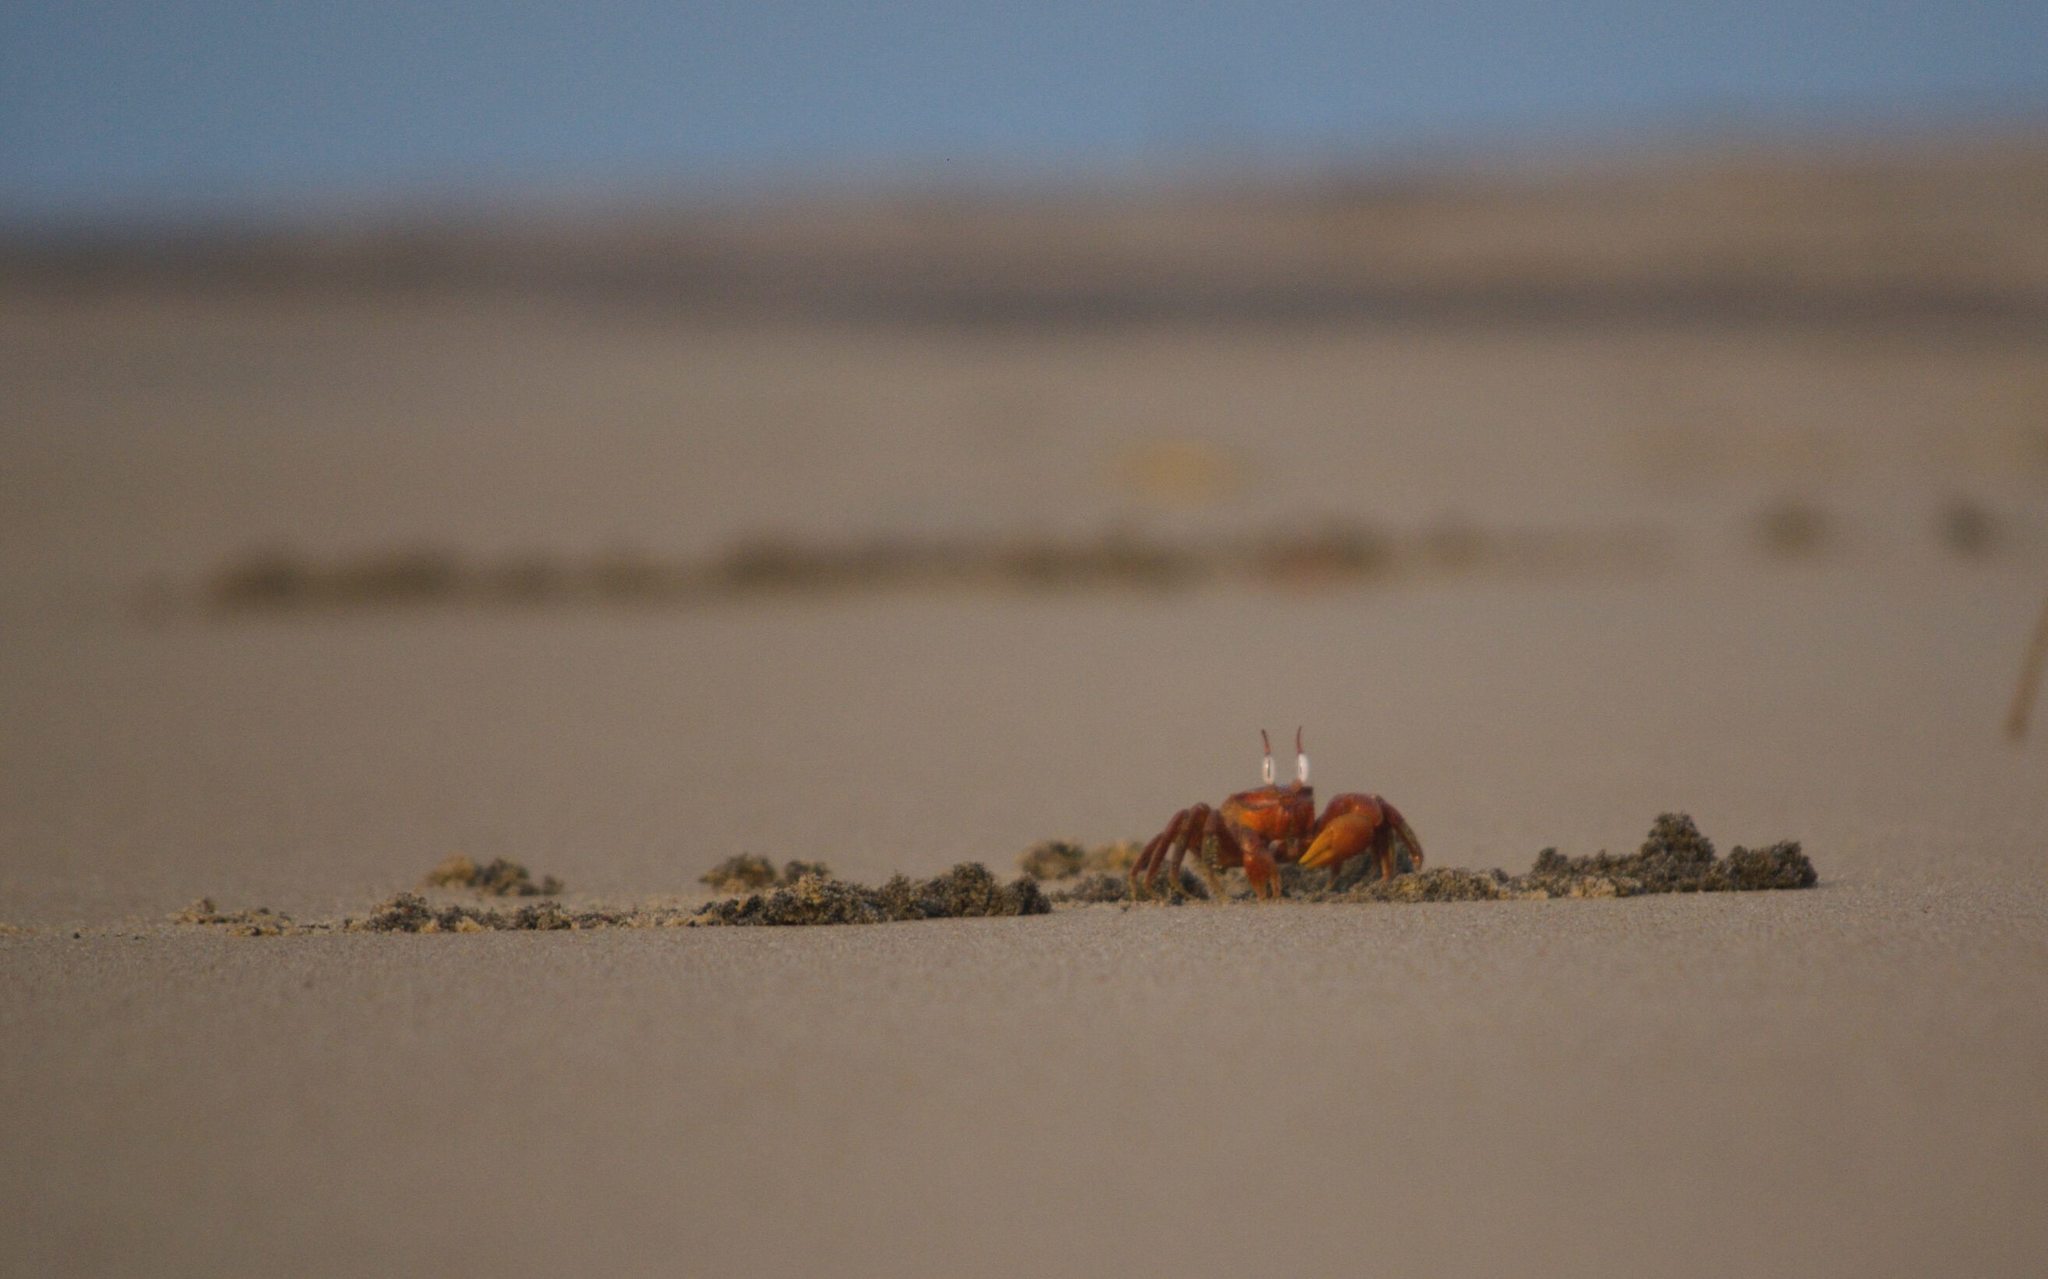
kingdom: Animalia
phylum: Arthropoda
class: Malacostraca
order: Decapoda
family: Ocypodidae
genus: Ocypode
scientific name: Ocypode macrocera
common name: Red ghost crab
